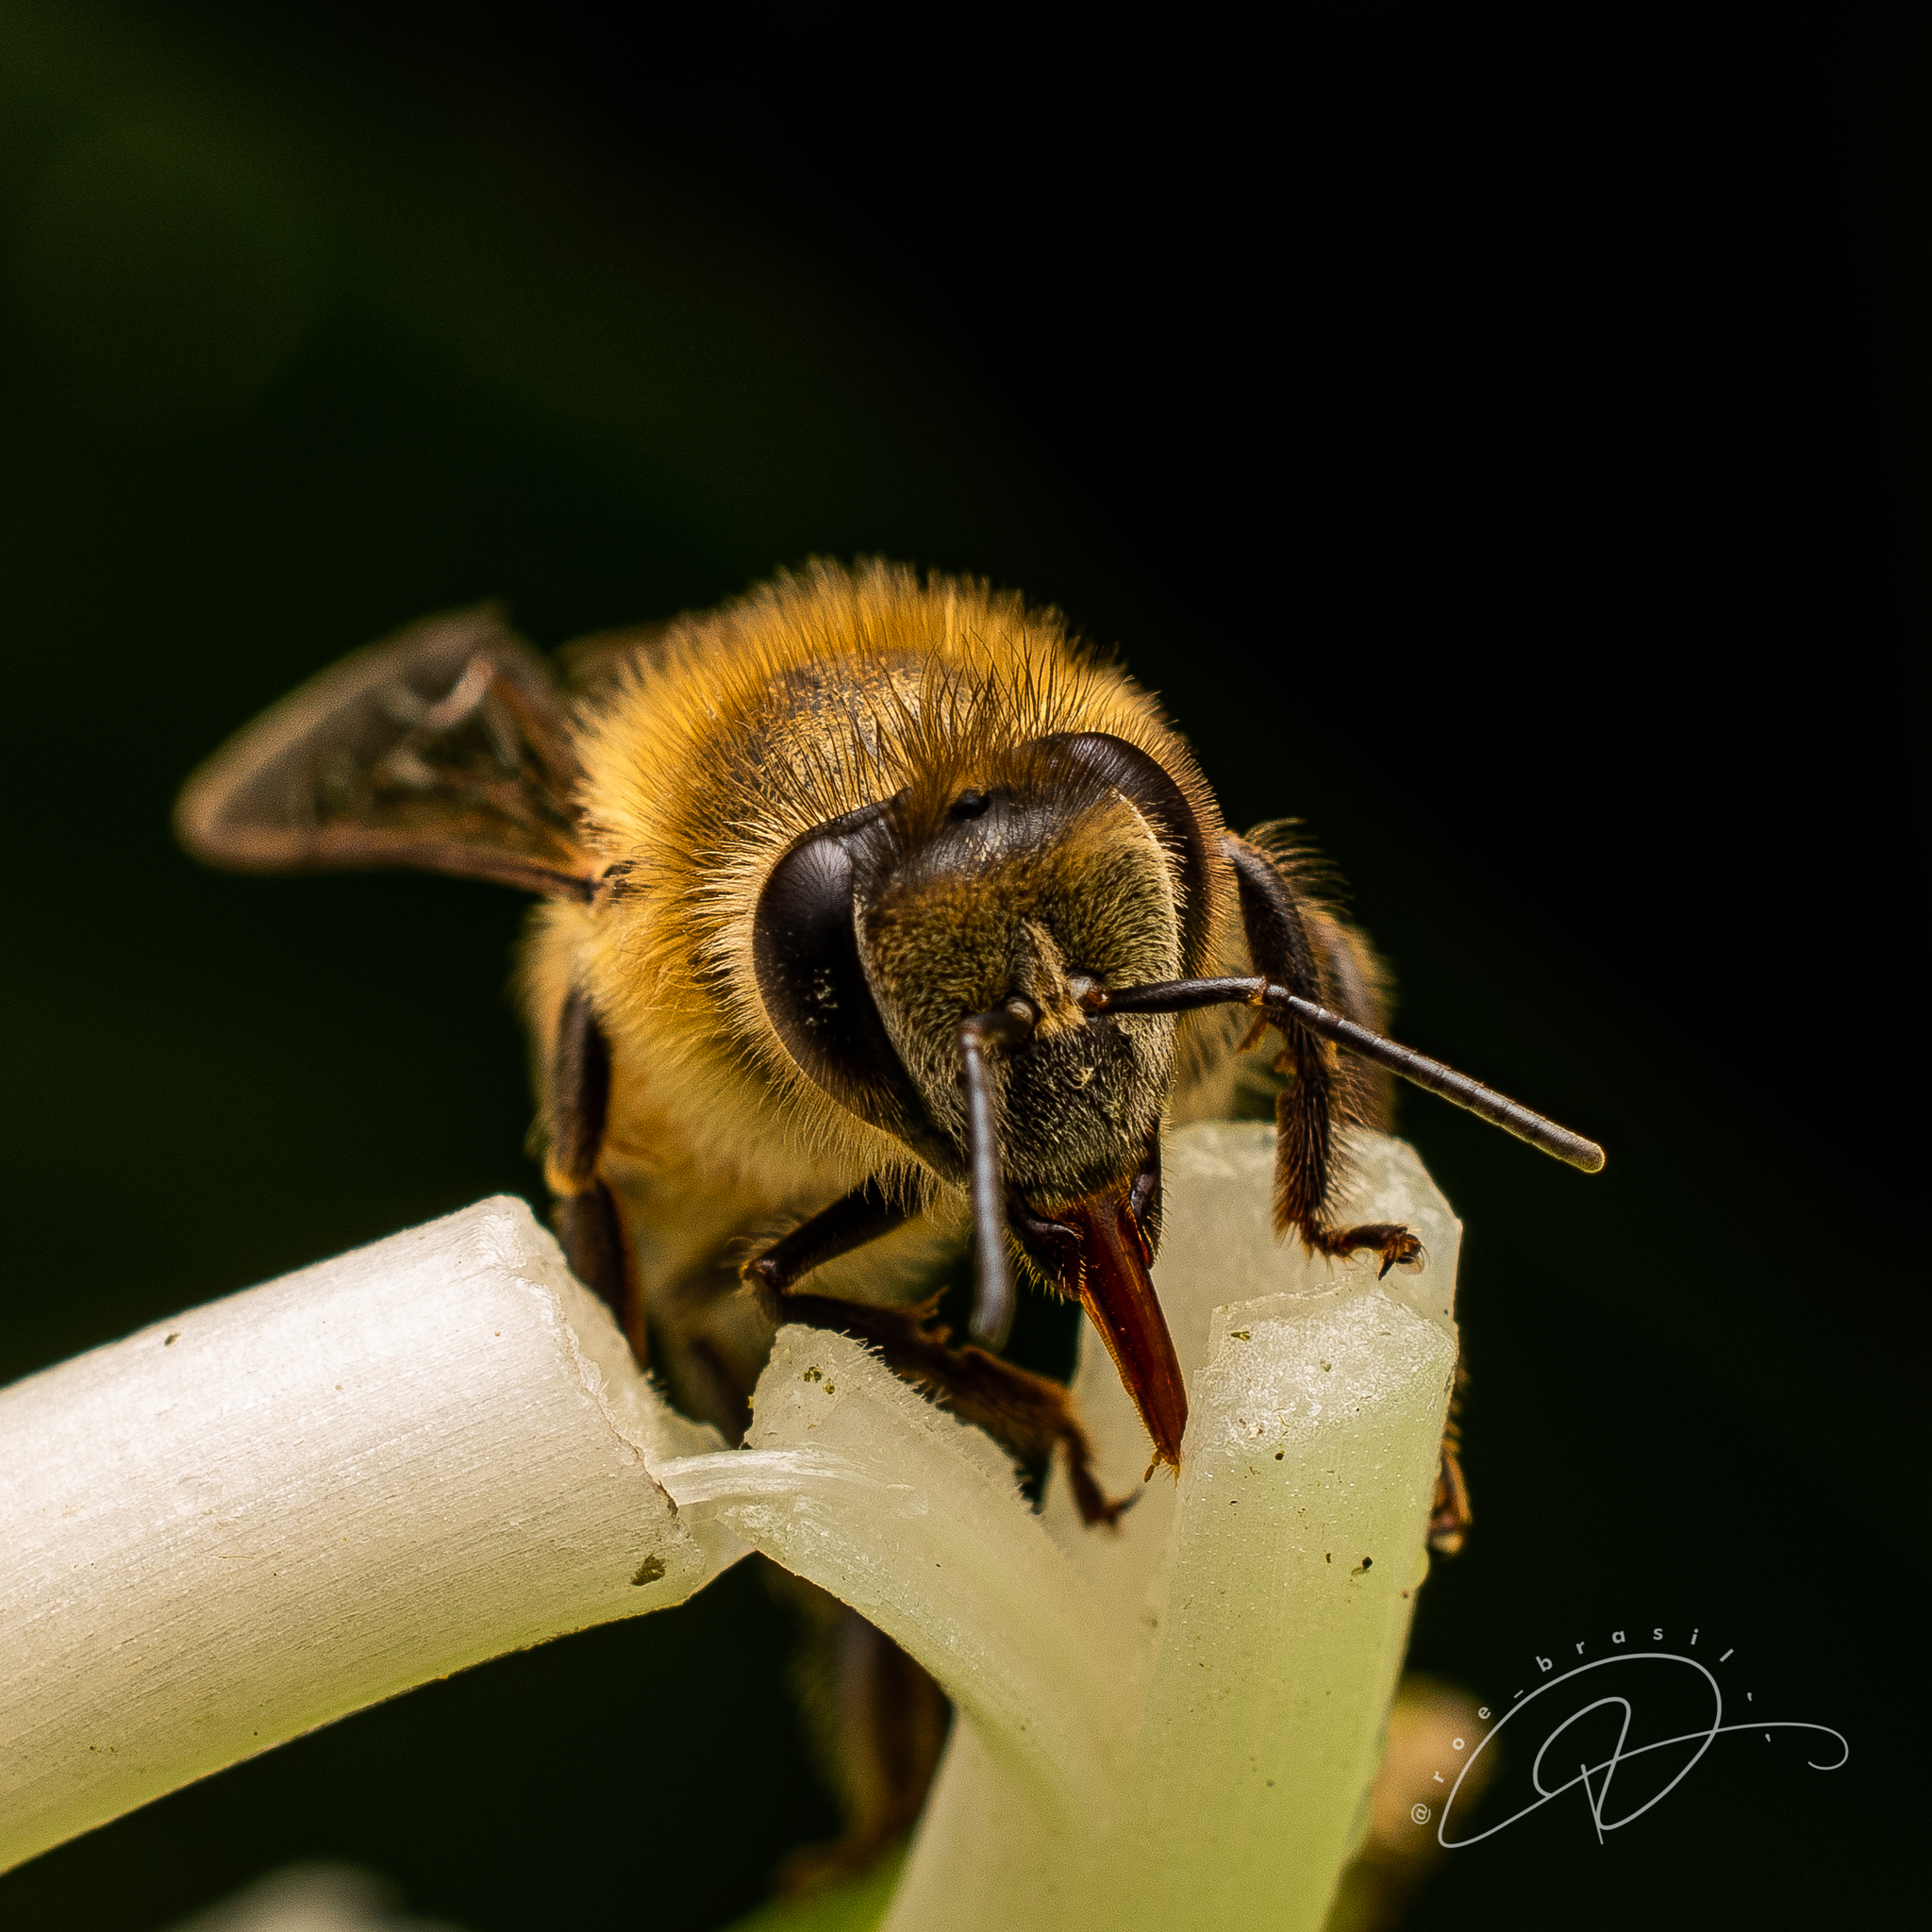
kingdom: Animalia
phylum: Arthropoda
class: Insecta
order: Hymenoptera
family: Apidae
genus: Apis
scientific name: Apis mellifera
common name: Honey bee
